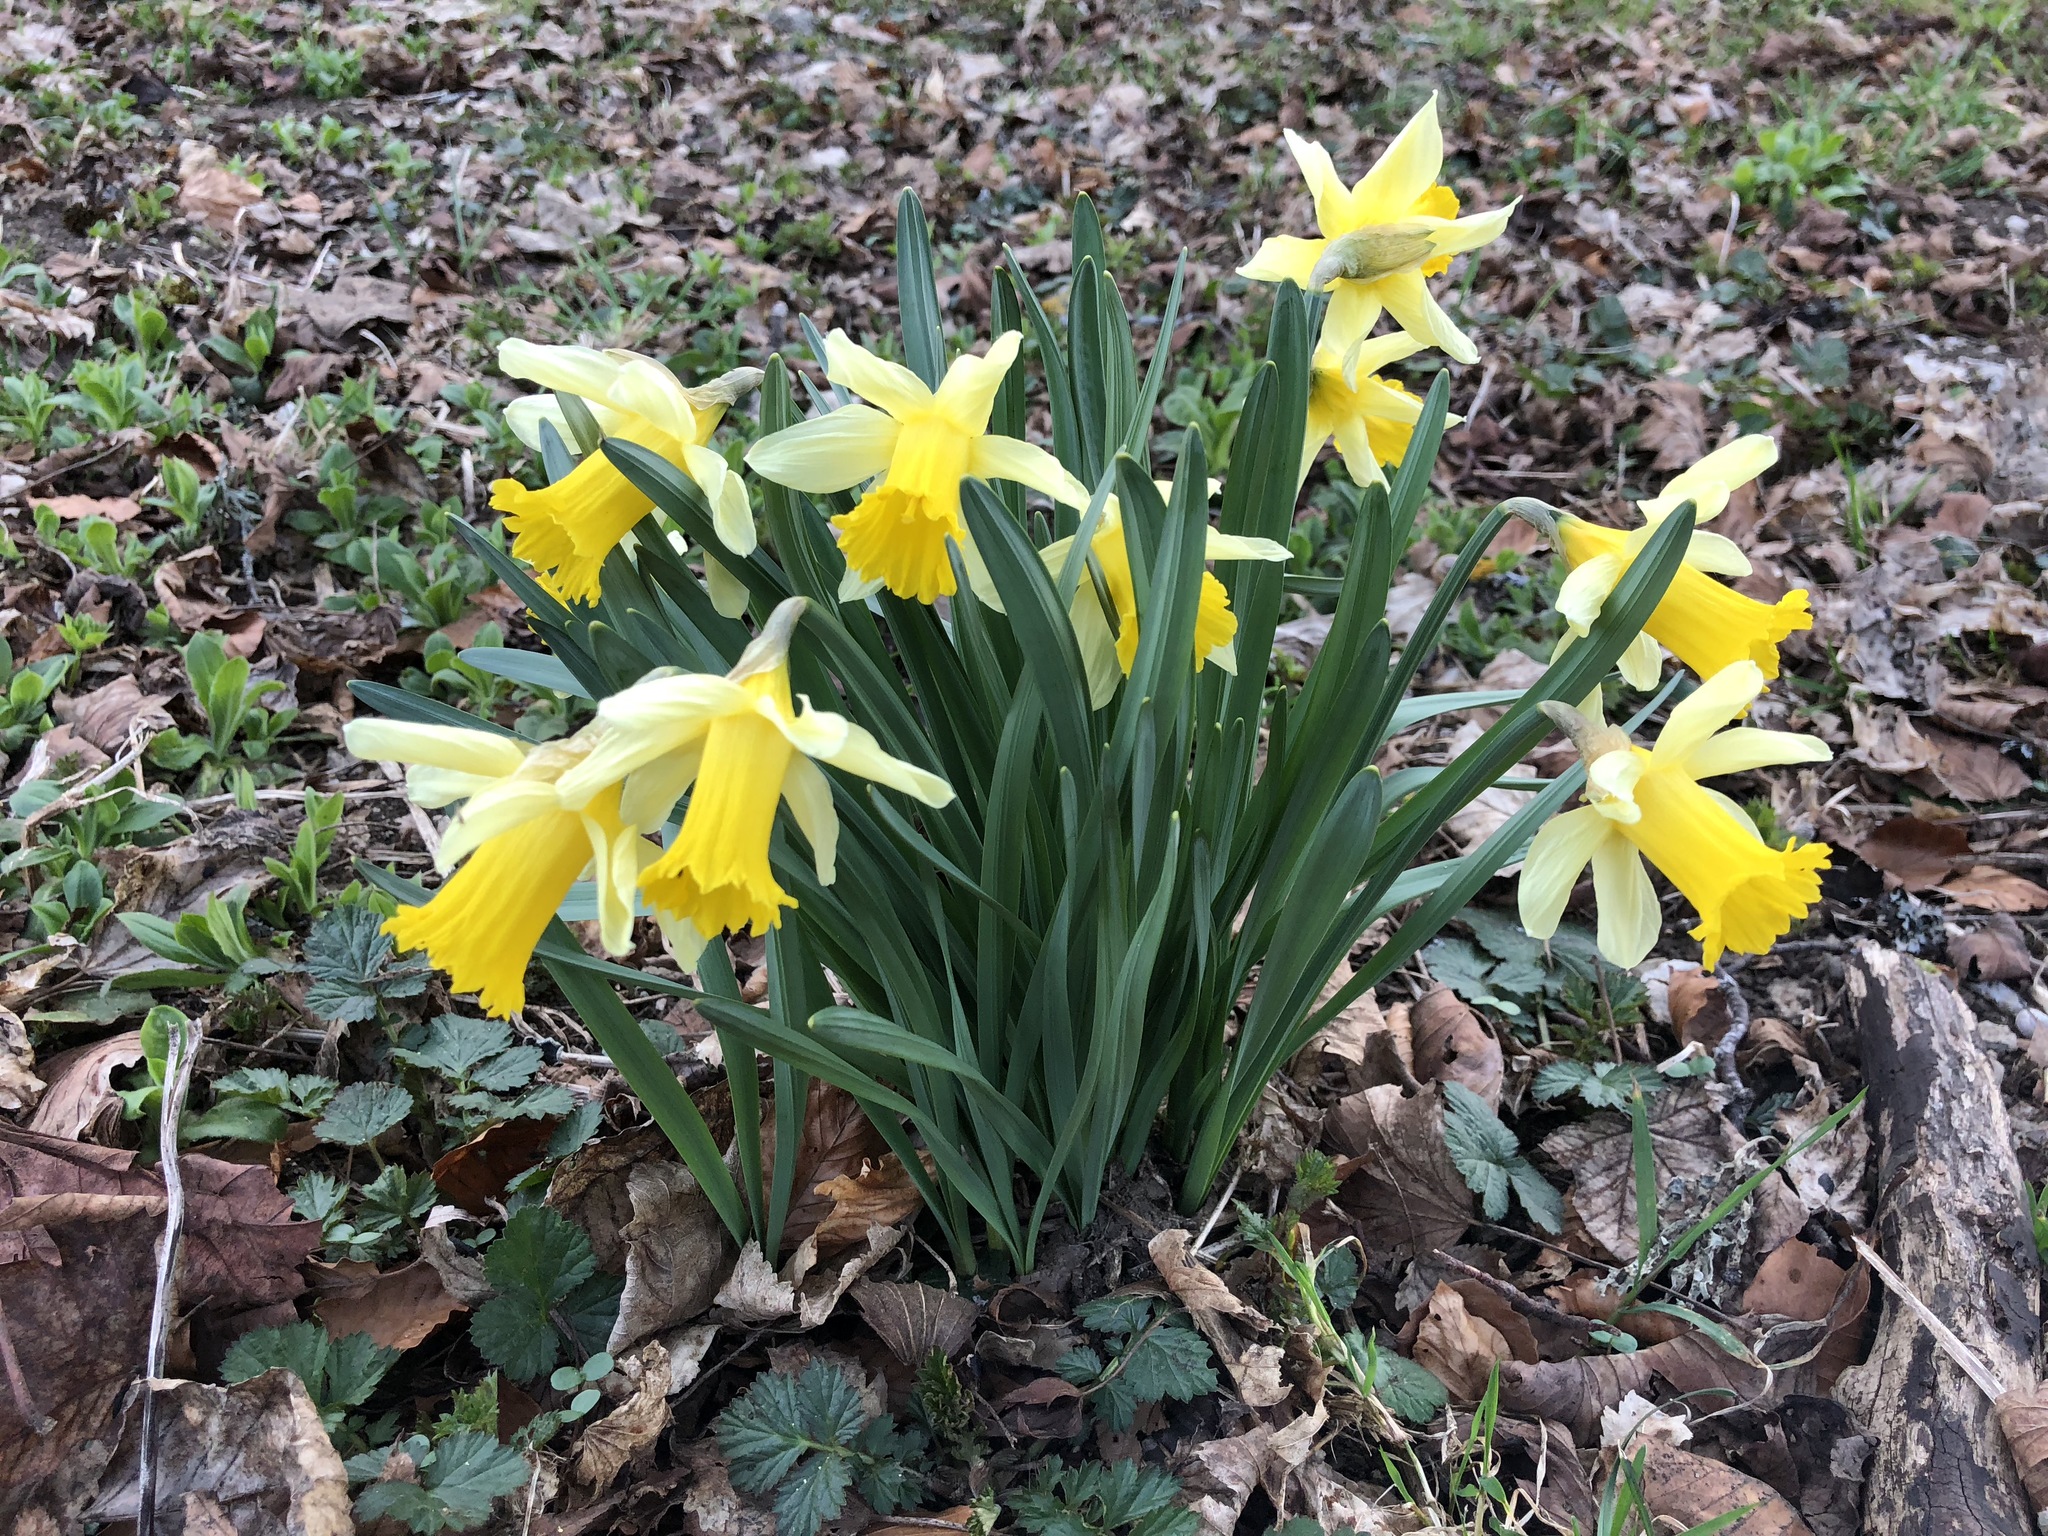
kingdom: Plantae
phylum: Tracheophyta
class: Liliopsida
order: Asparagales
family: Amaryllidaceae
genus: Narcissus
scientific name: Narcissus pseudonarcissus
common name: Daffodil
